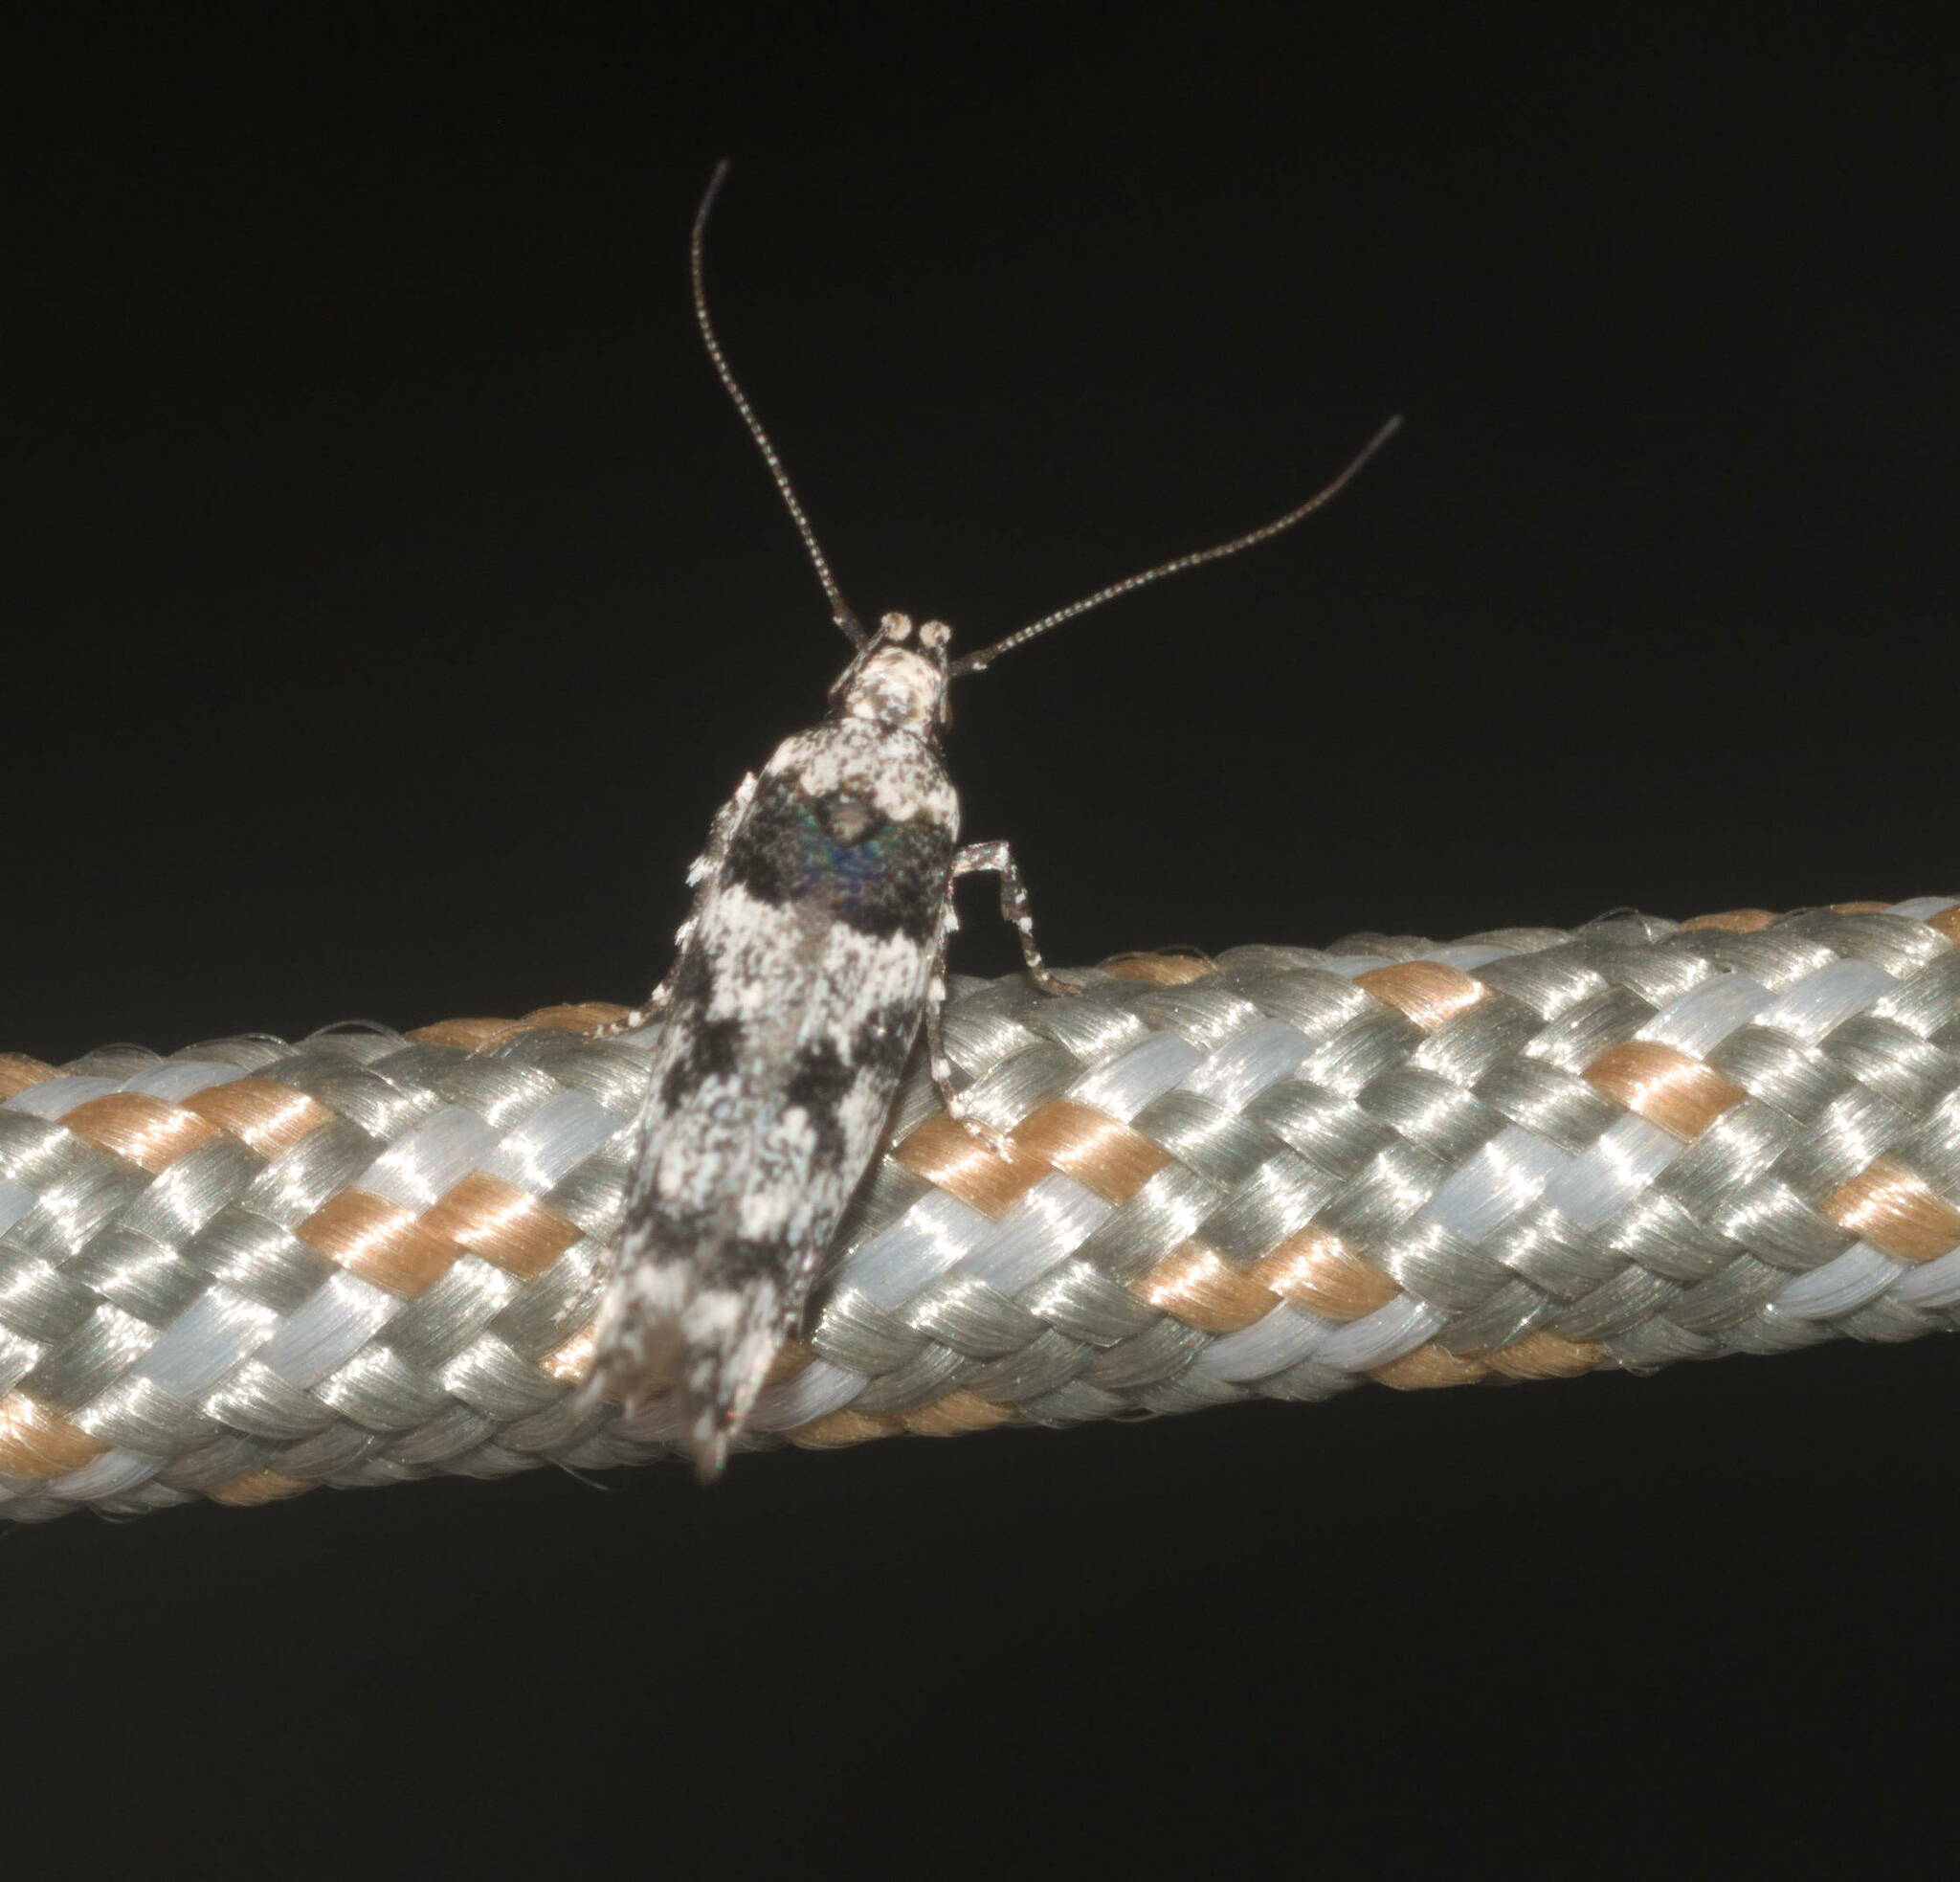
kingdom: Animalia
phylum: Arthropoda
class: Insecta
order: Lepidoptera
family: Cosmopterigidae
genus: Hyposmochoma
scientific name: Hyposmochoma empedota
